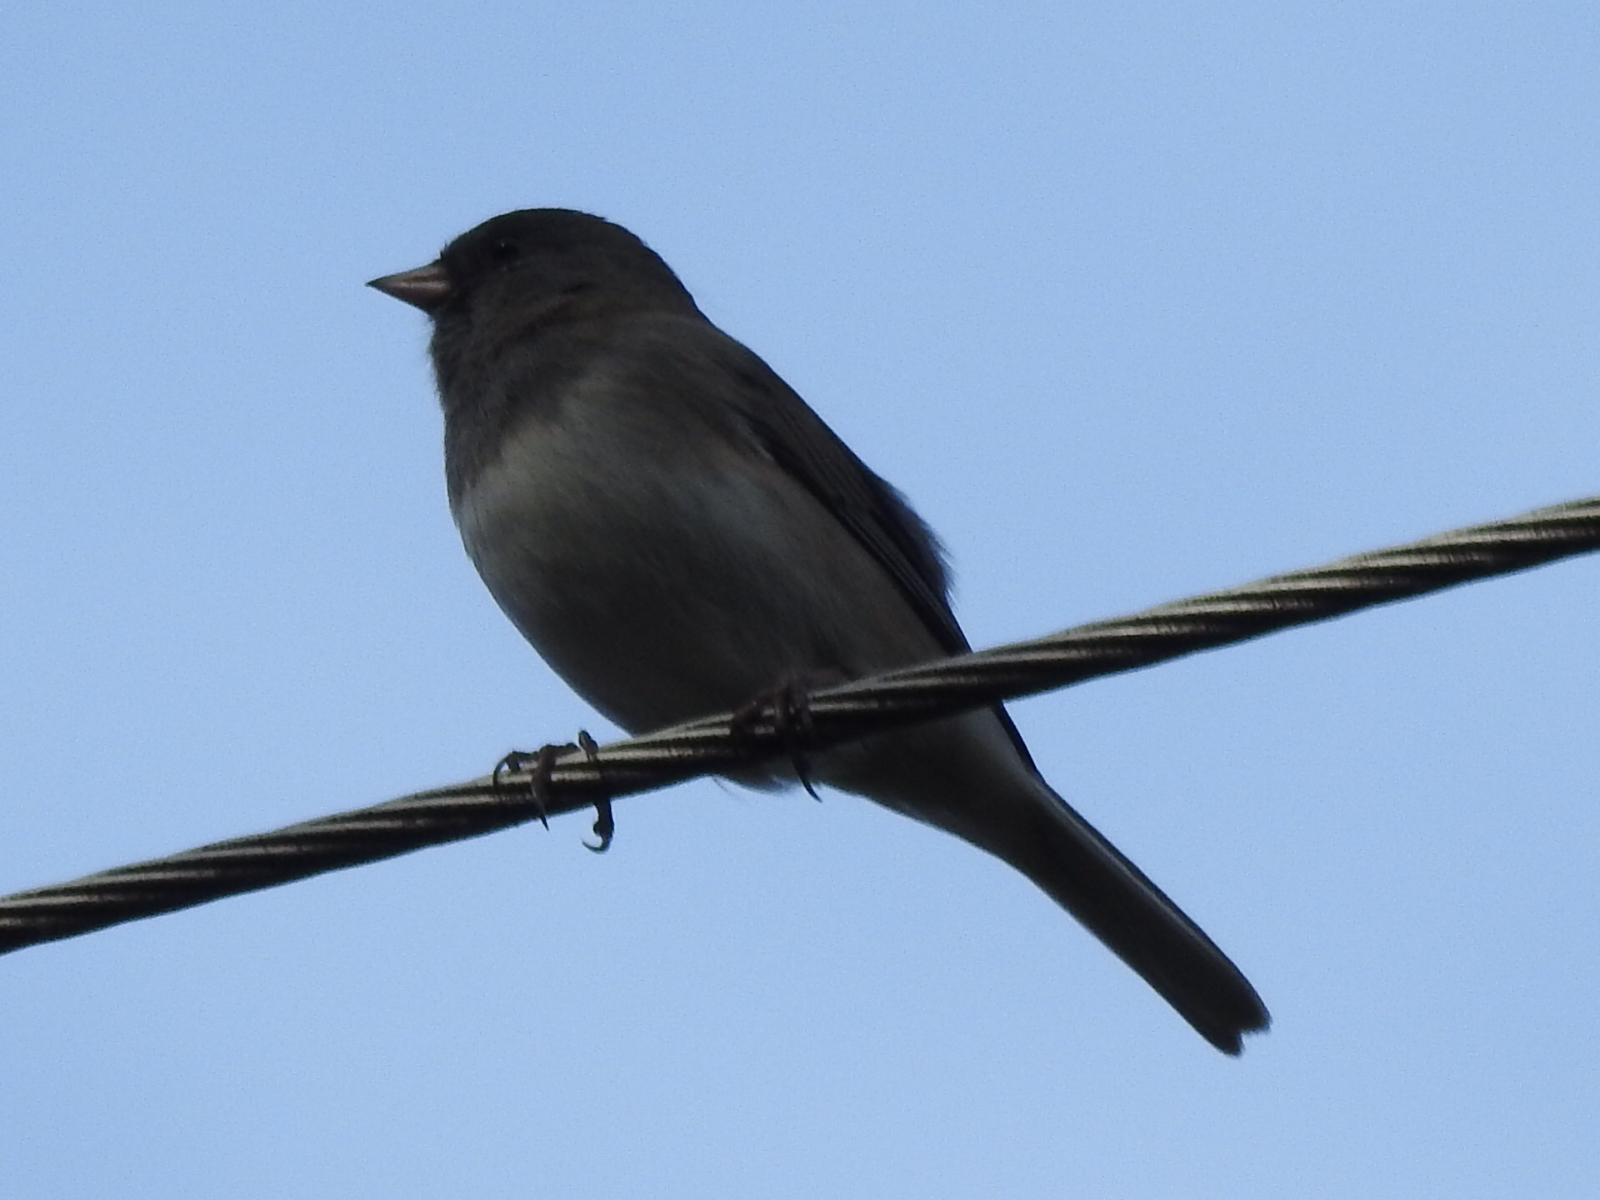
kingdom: Animalia
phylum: Chordata
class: Aves
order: Passeriformes
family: Passerellidae
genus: Junco
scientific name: Junco hyemalis
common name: Dark-eyed junco
